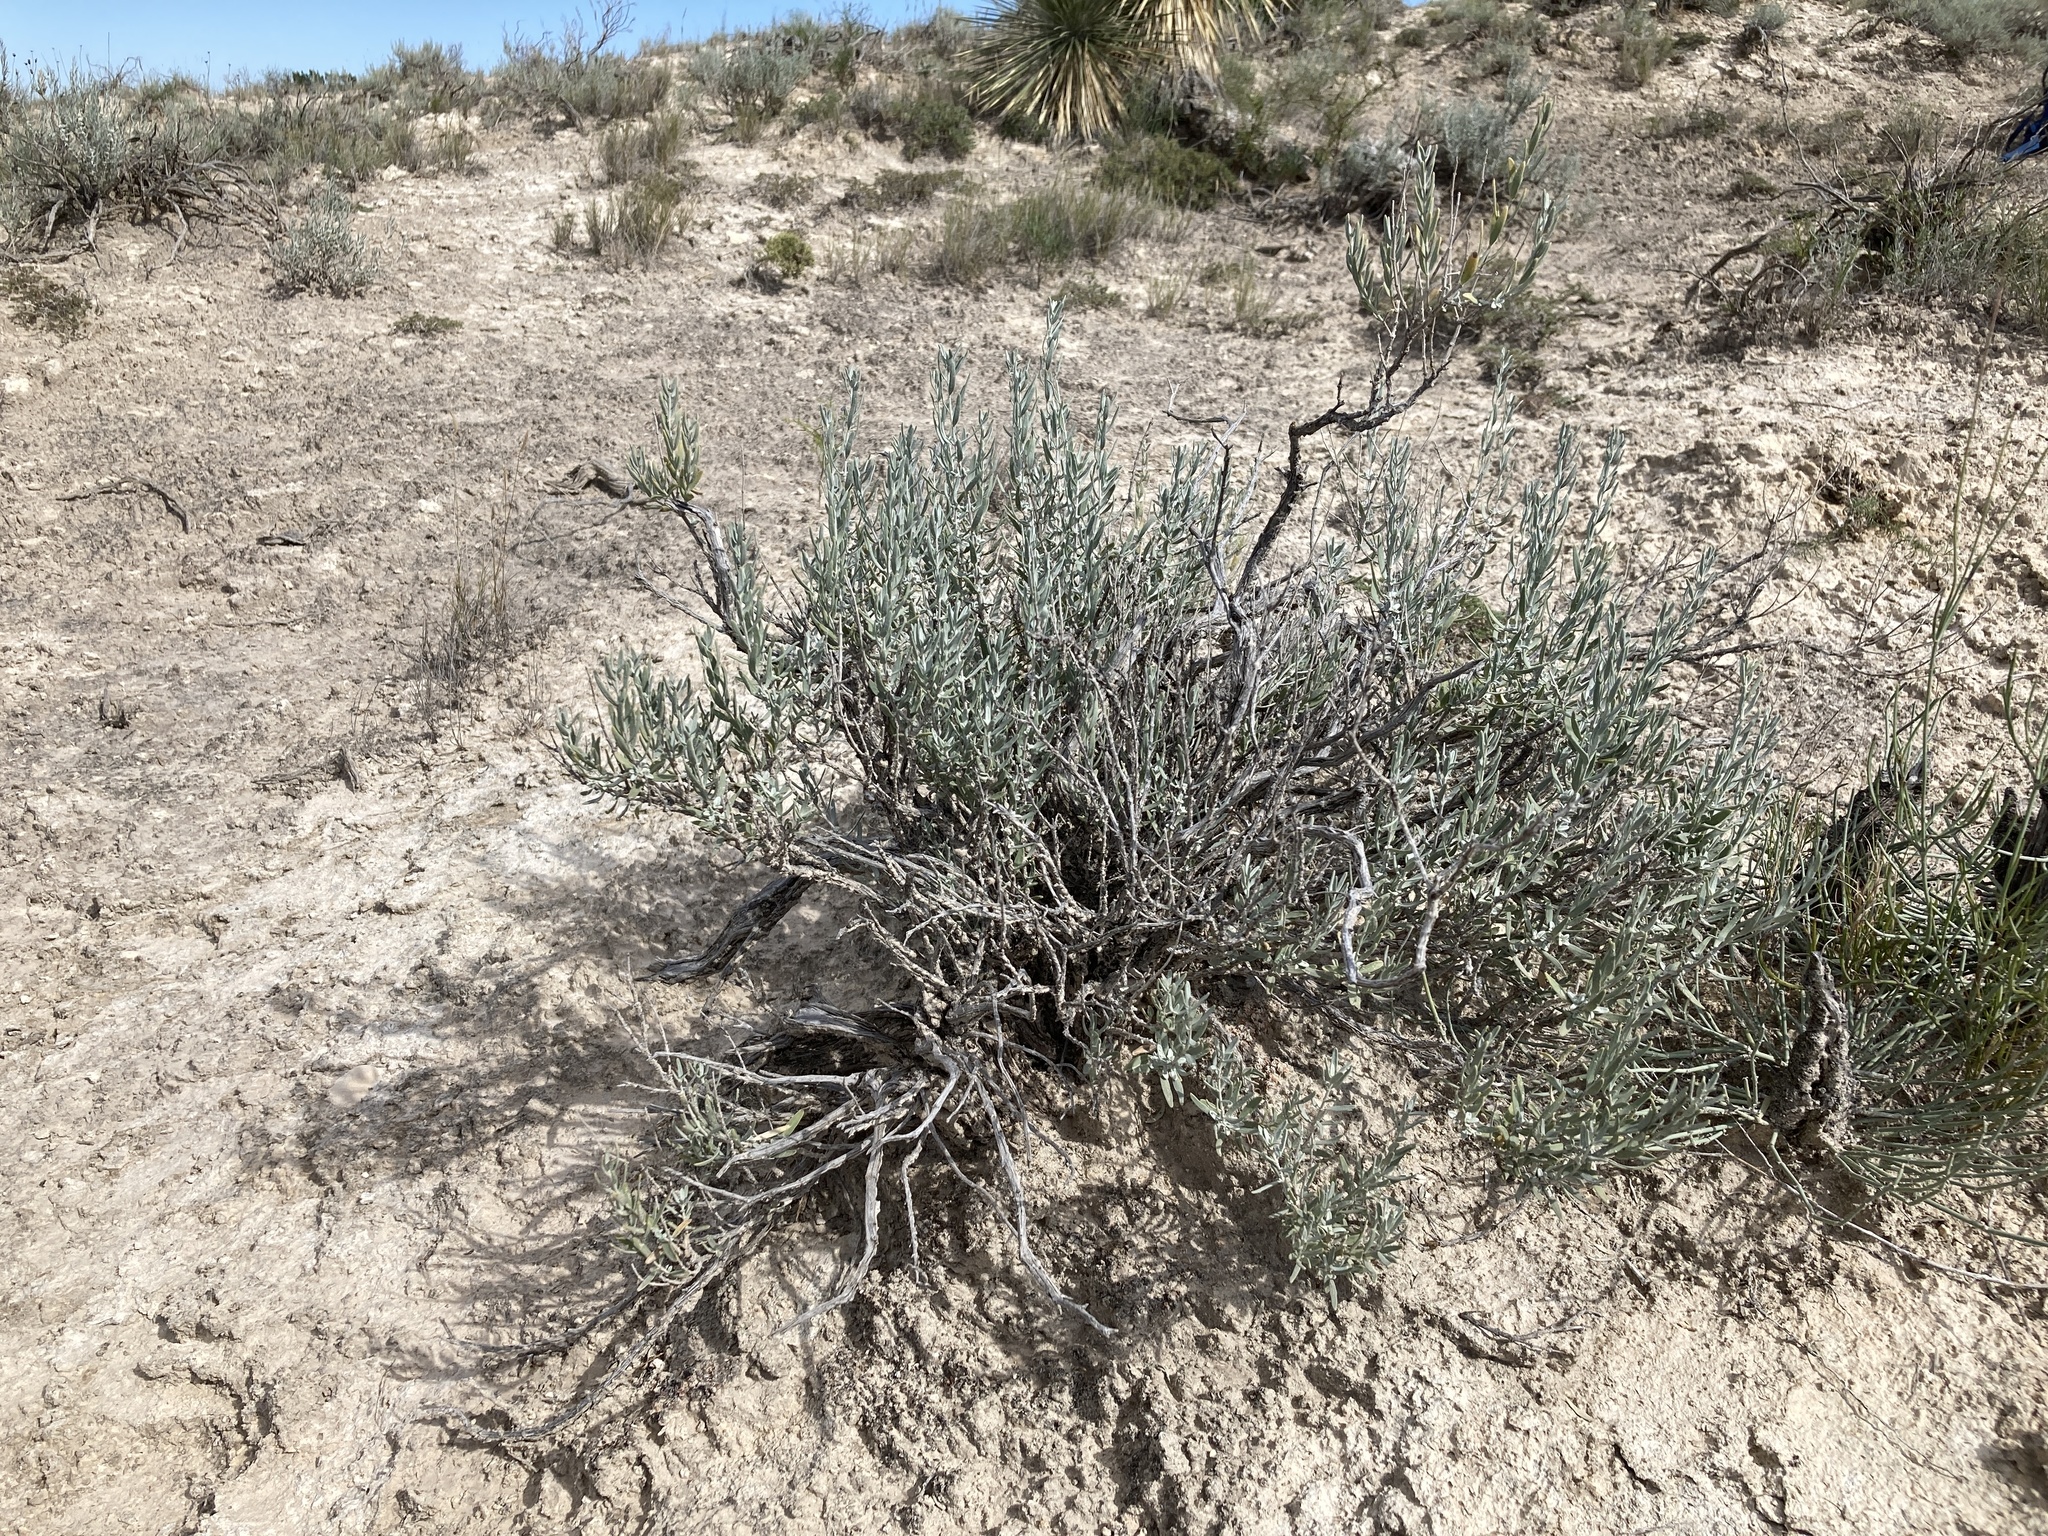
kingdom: Plantae
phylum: Tracheophyta
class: Magnoliopsida
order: Lamiales
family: Lamiaceae
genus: Poliomintha
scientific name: Poliomintha incana
